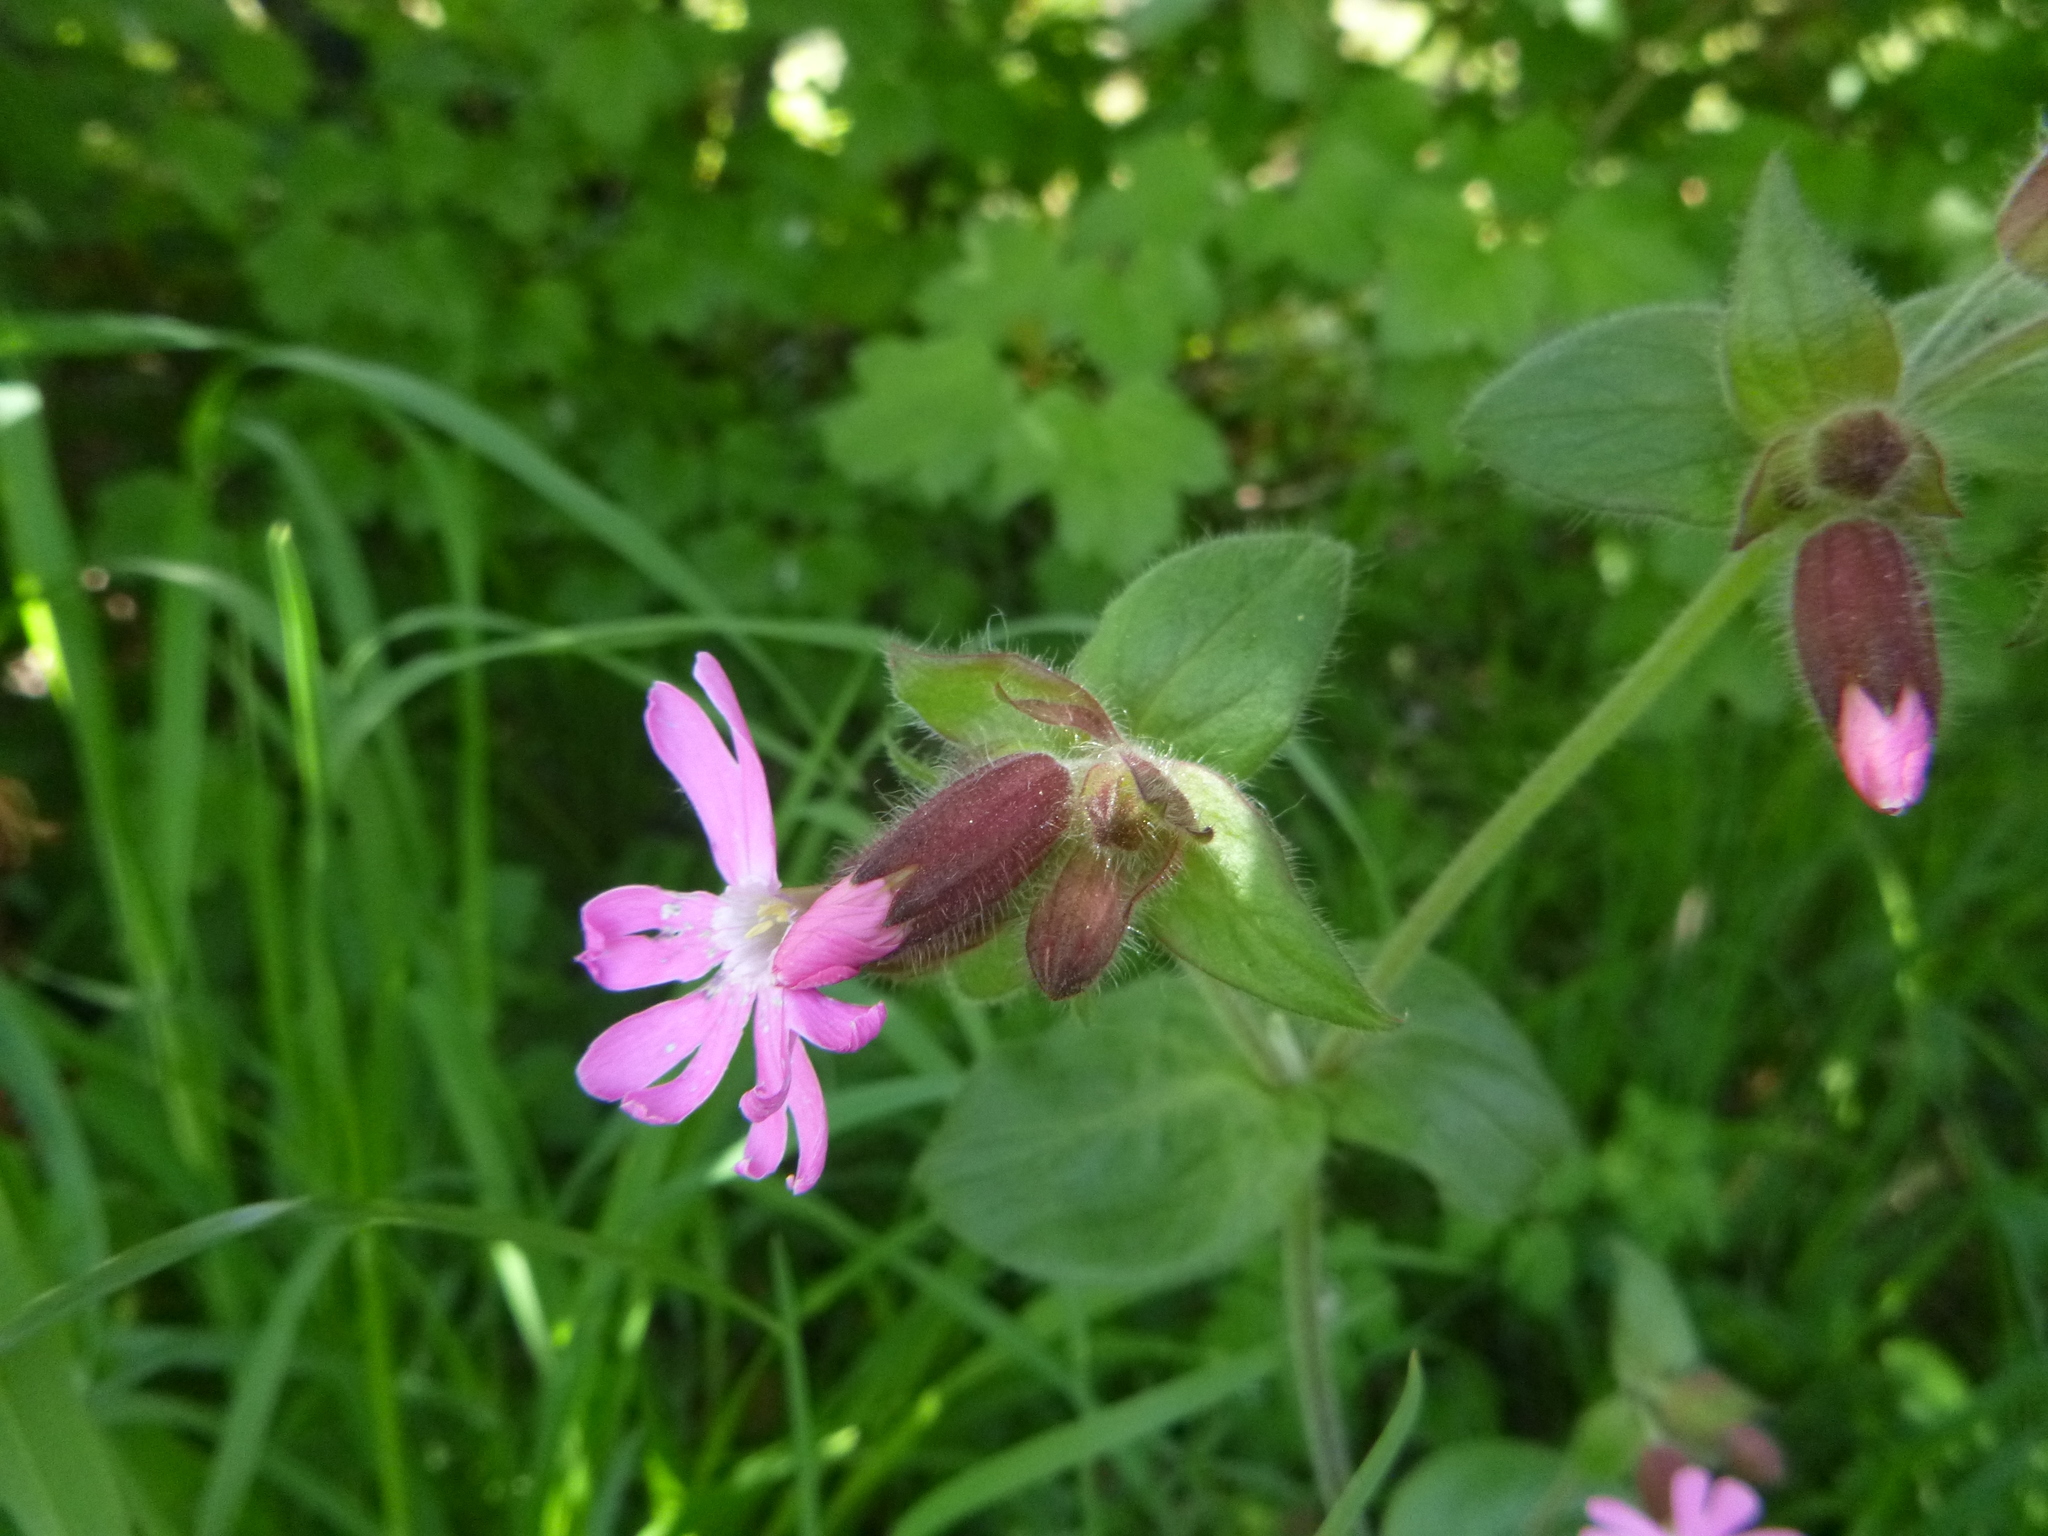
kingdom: Plantae
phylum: Tracheophyta
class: Magnoliopsida
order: Caryophyllales
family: Caryophyllaceae
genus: Silene
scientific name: Silene dioica
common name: Red campion
